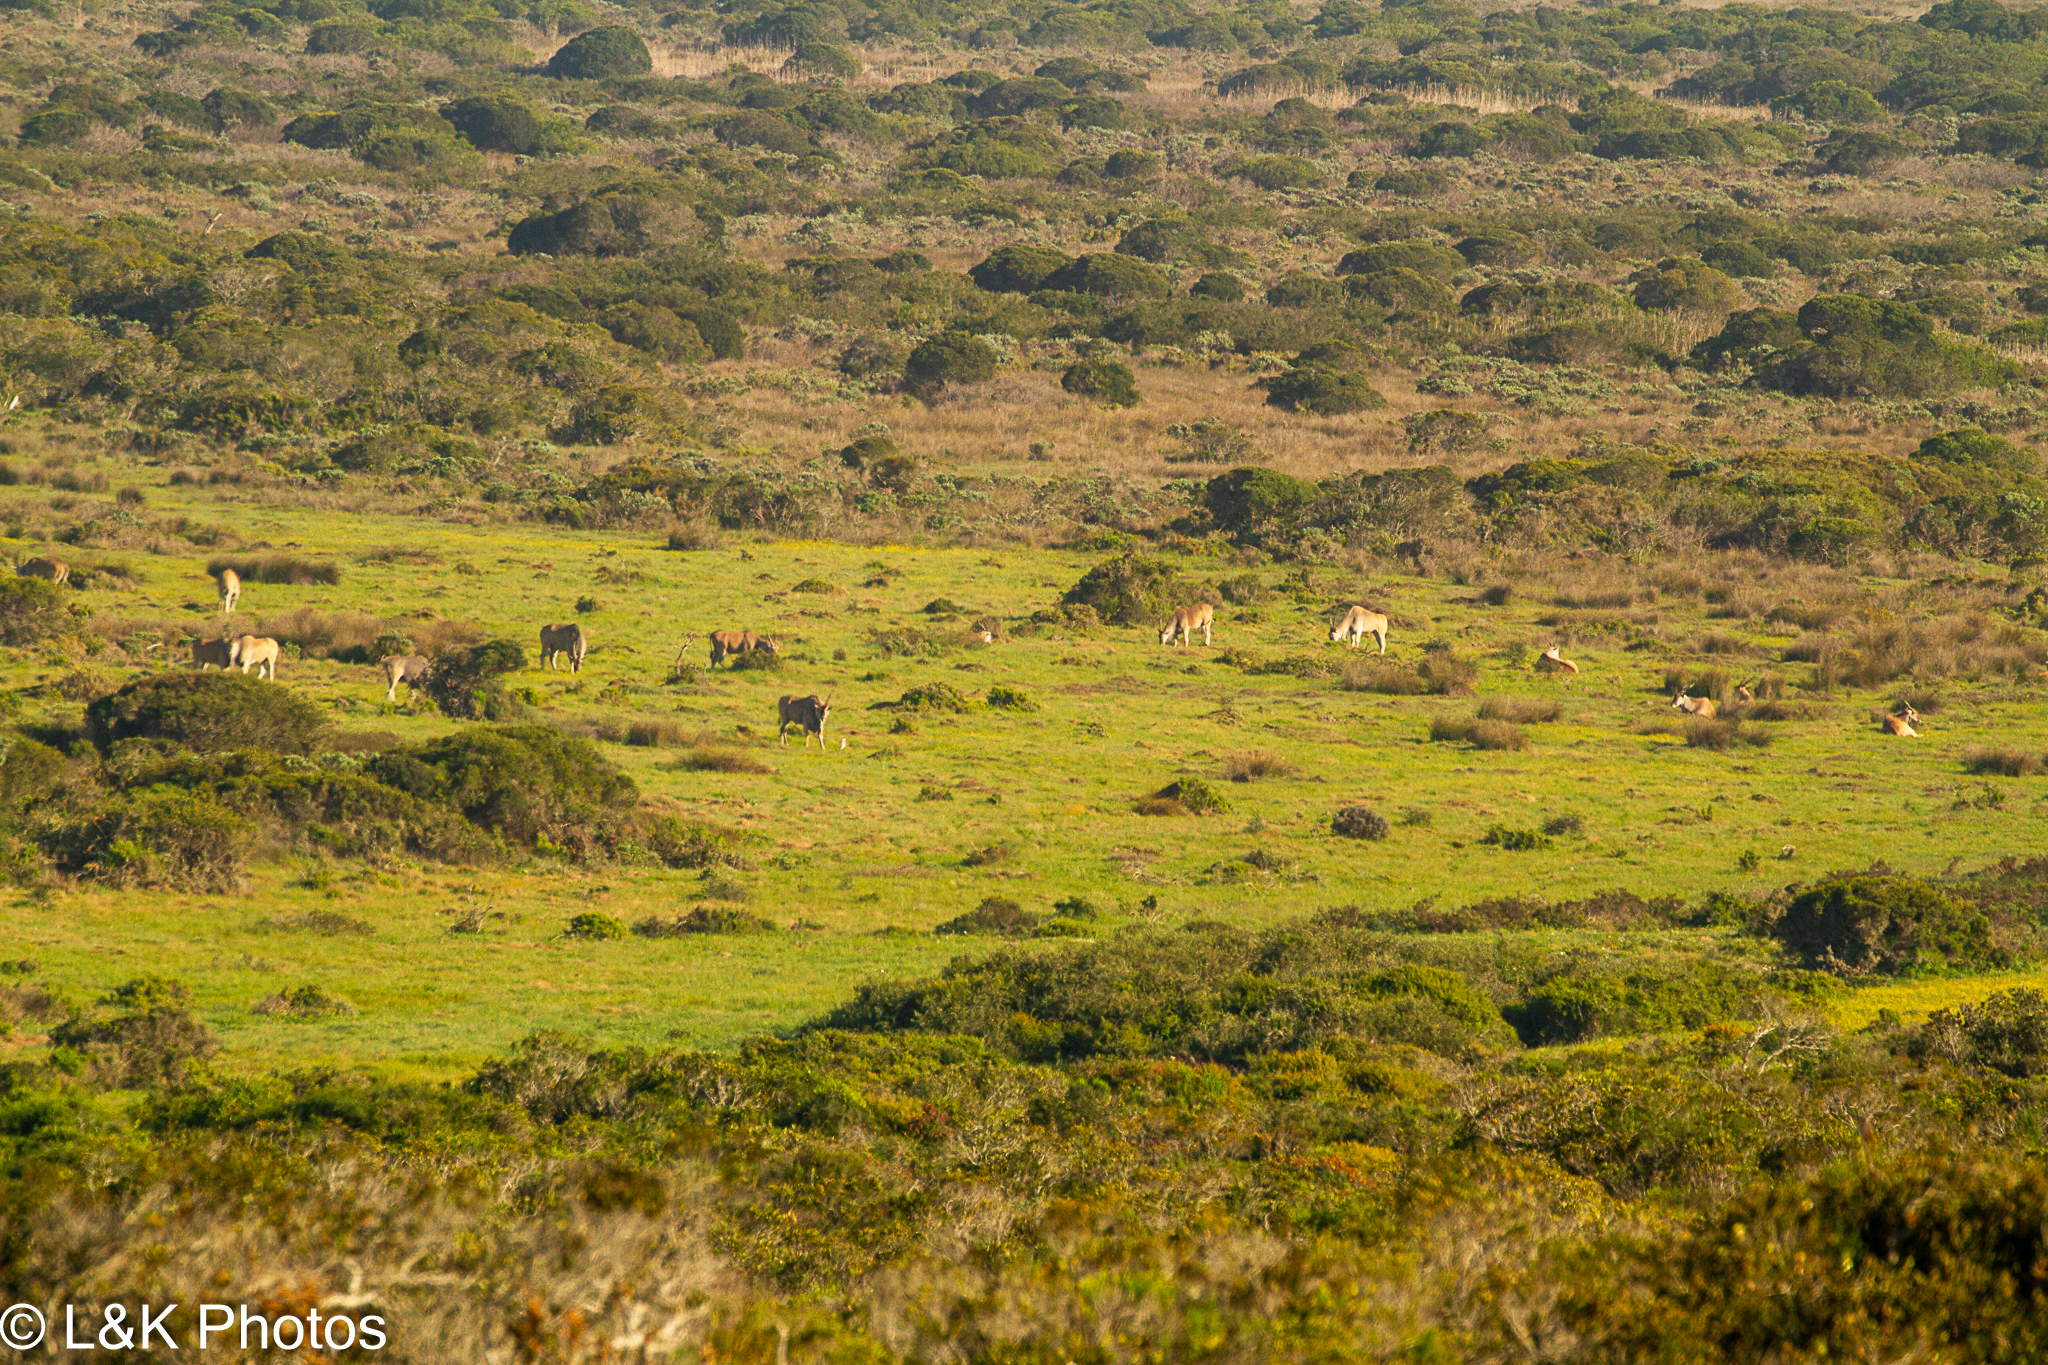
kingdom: Animalia
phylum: Chordata
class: Mammalia
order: Artiodactyla
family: Bovidae
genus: Taurotragus
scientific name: Taurotragus oryx
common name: Common eland
